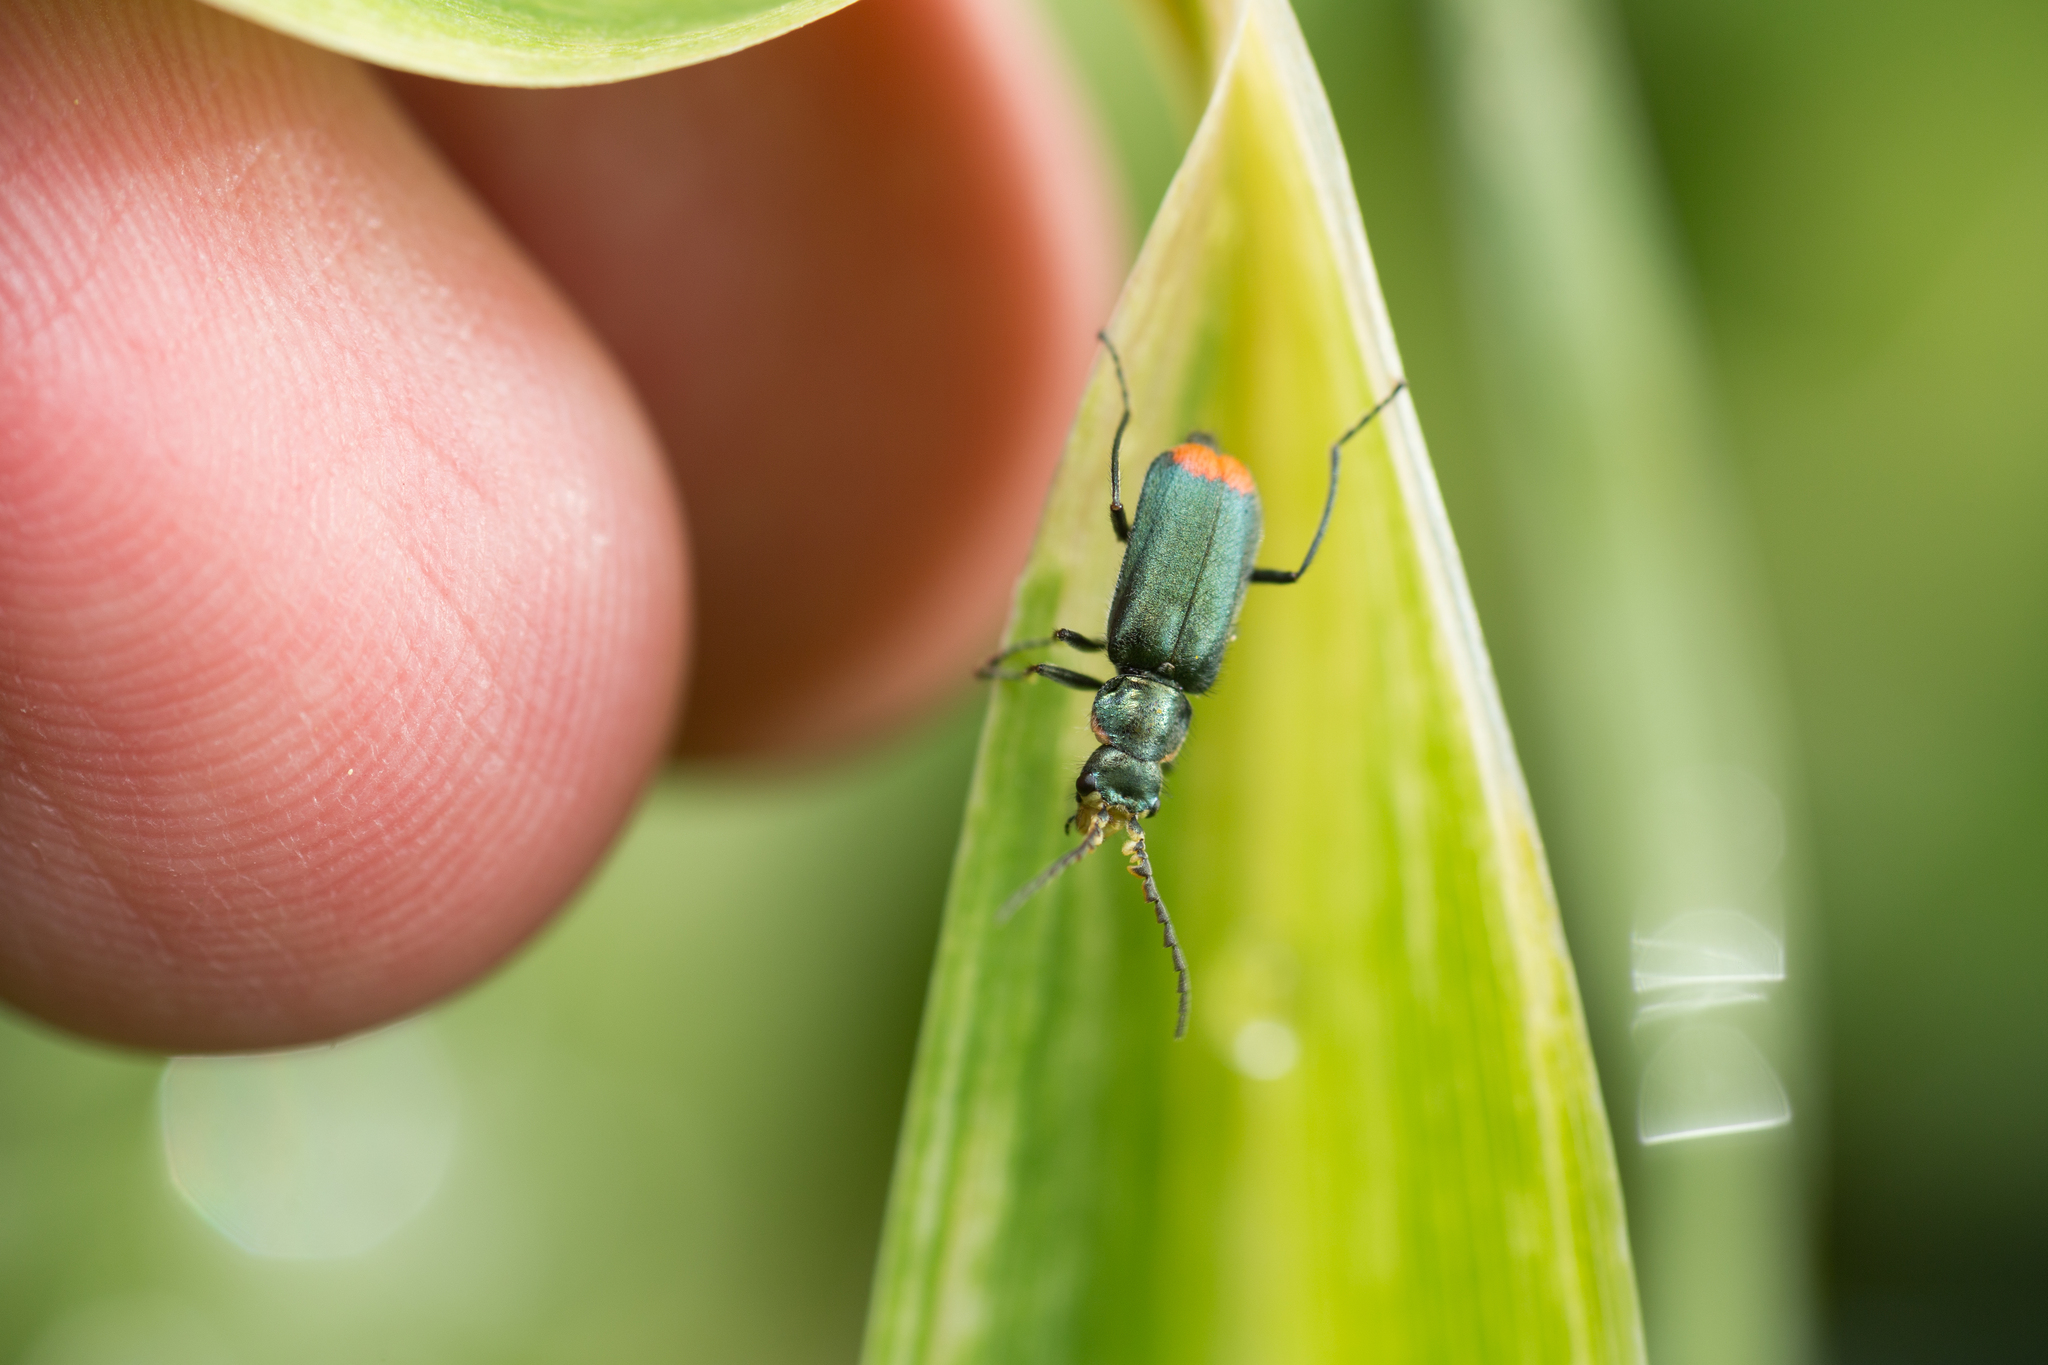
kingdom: Animalia
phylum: Arthropoda
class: Insecta
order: Coleoptera
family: Melyridae
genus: Malachius
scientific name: Malachius bipustulatus
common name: Malachite beetle
